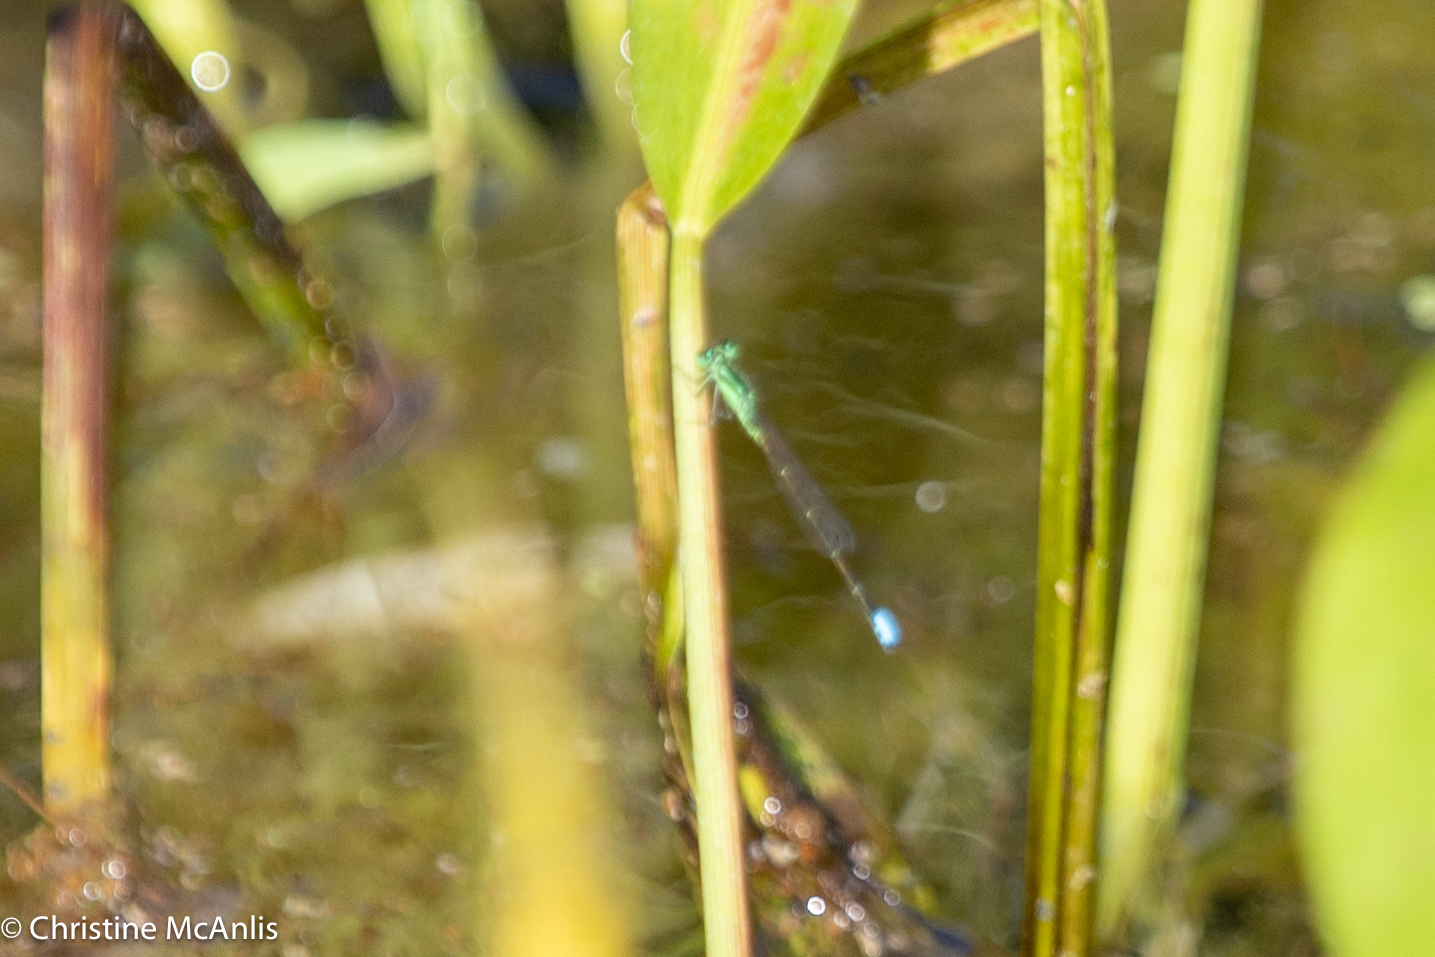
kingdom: Animalia
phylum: Arthropoda
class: Insecta
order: Odonata
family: Coenagrionidae
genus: Ischnura
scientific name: Ischnura verticalis
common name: Eastern forktail
